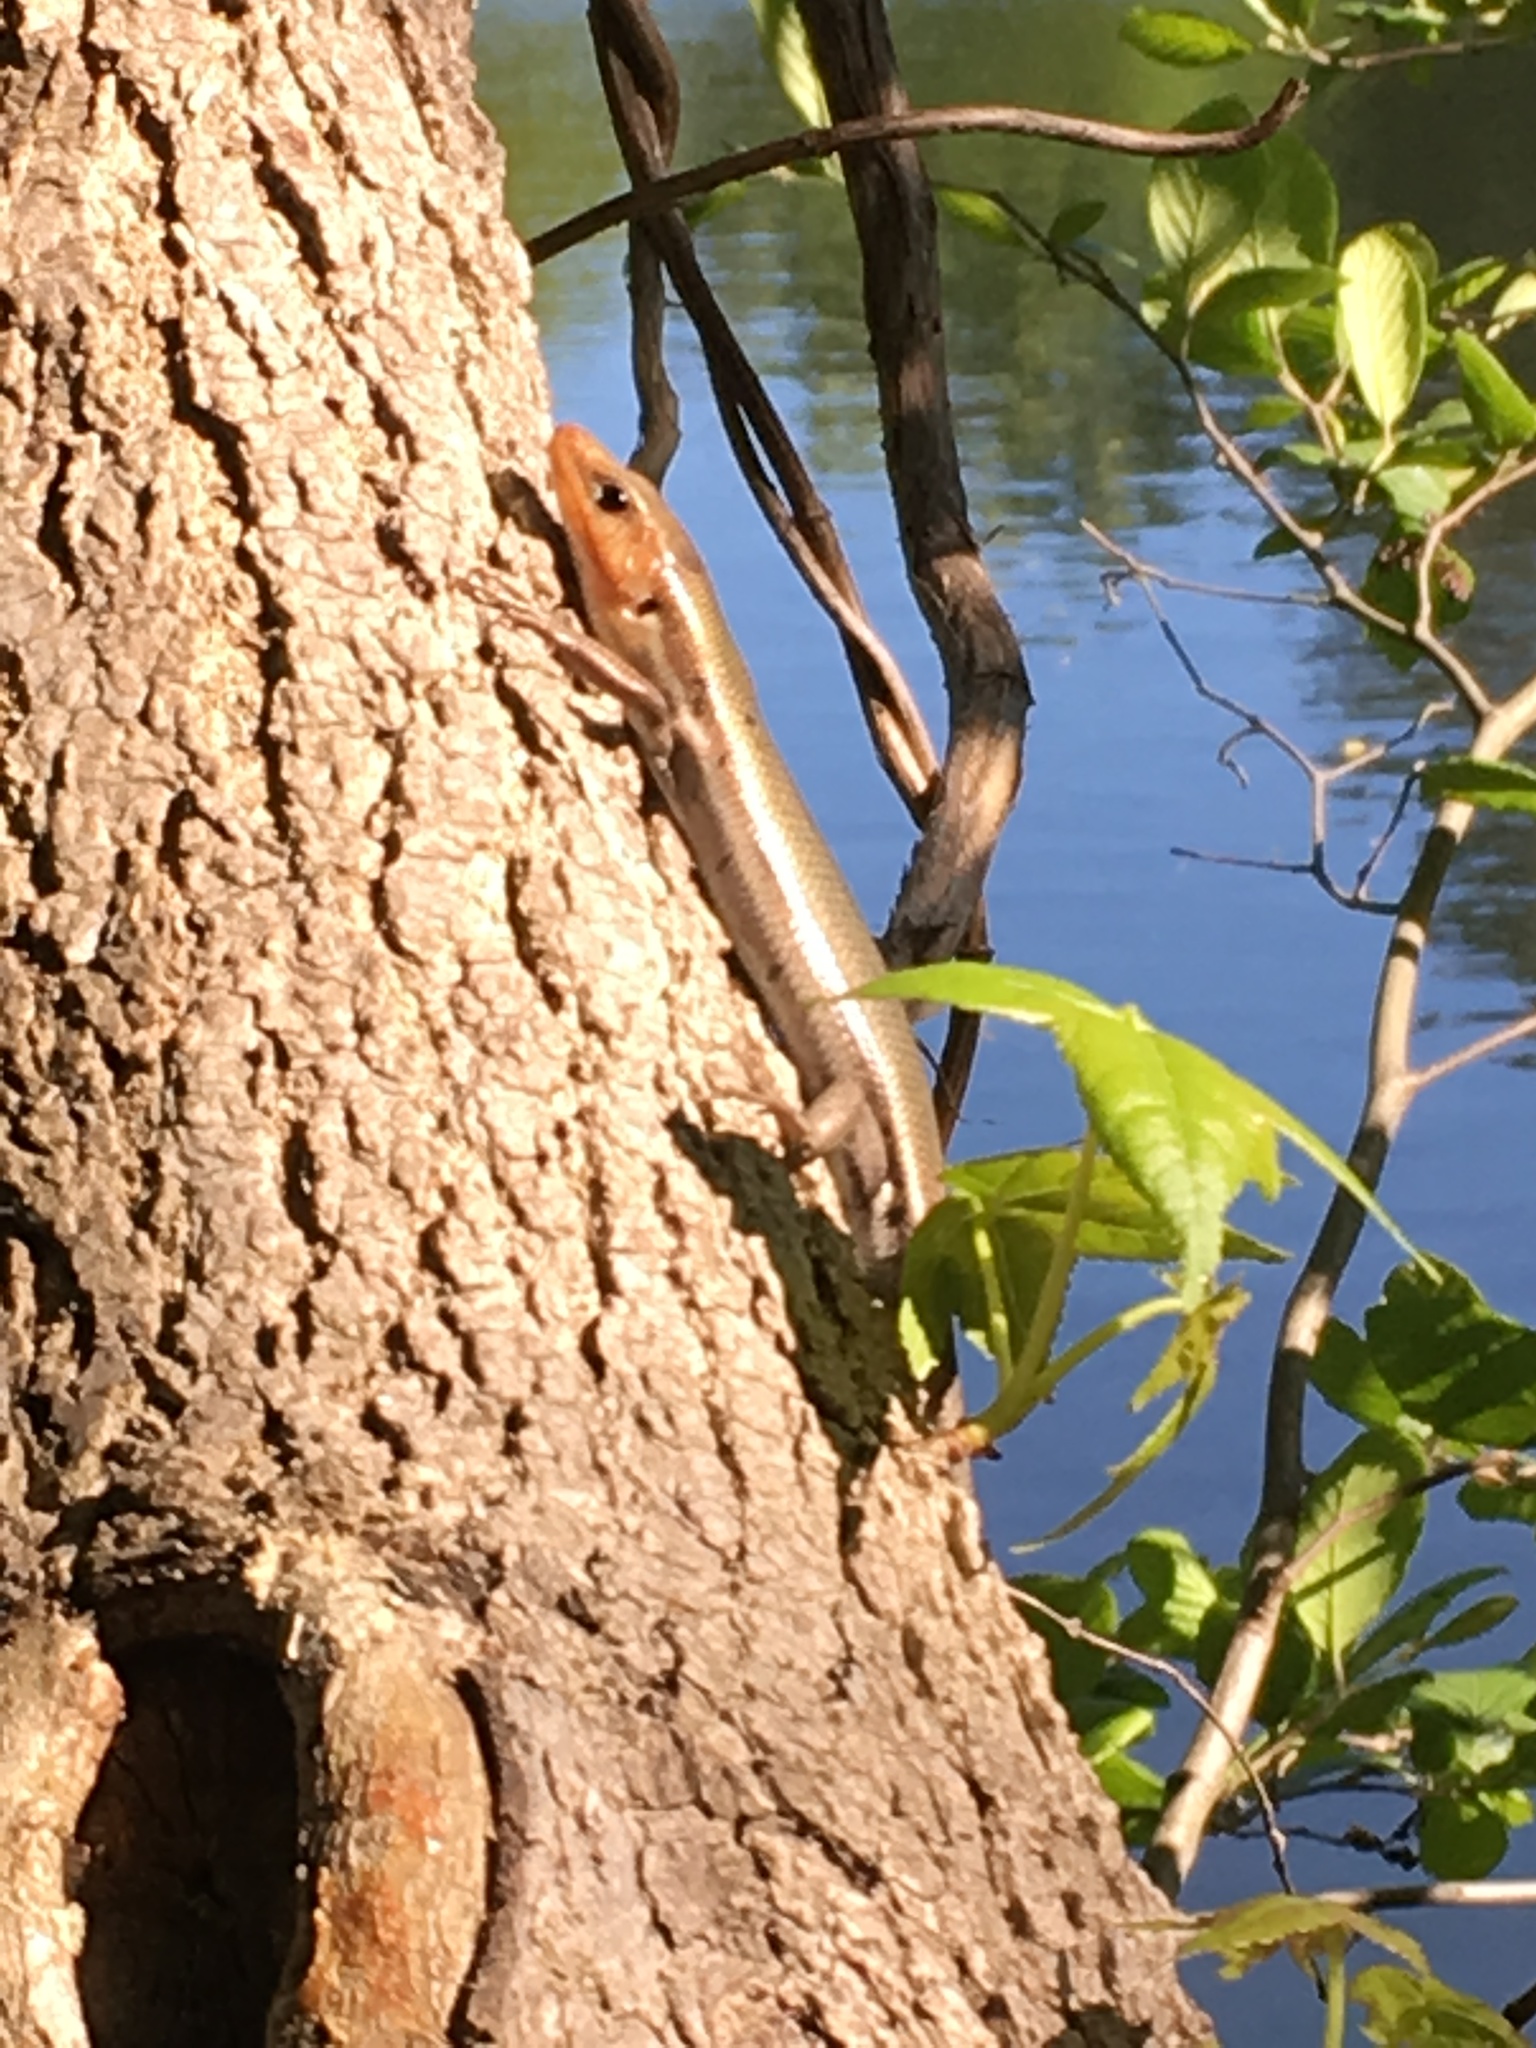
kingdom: Animalia
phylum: Chordata
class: Squamata
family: Scincidae
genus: Plestiodon
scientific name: Plestiodon laticeps
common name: Broadhead skink
